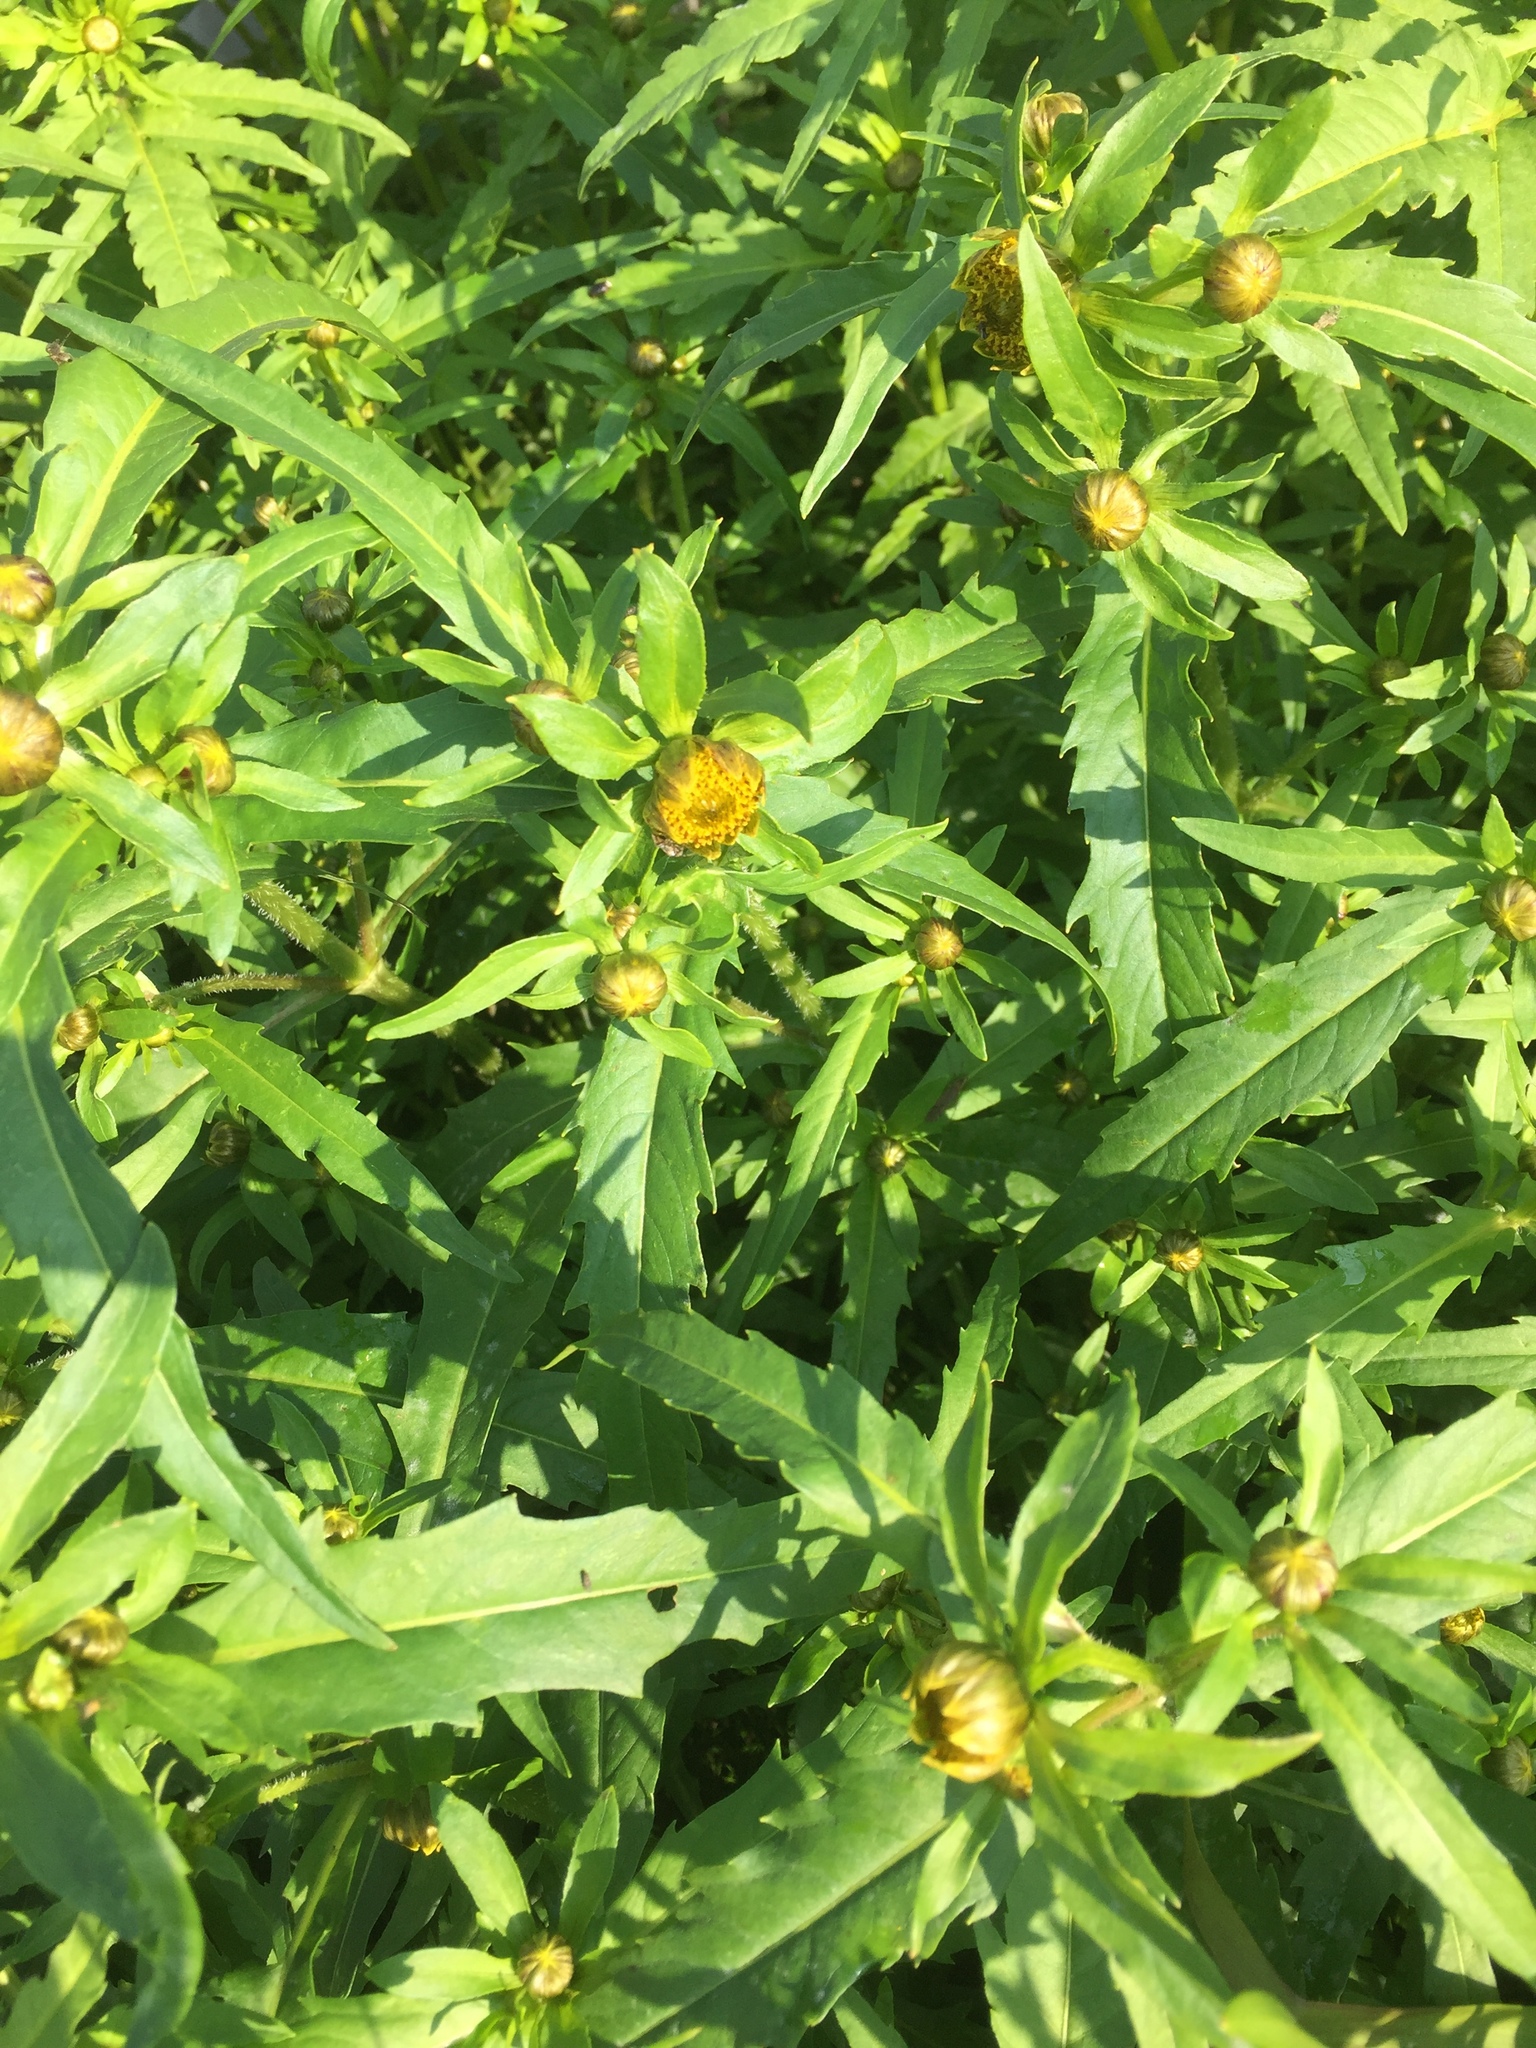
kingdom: Plantae
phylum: Tracheophyta
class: Magnoliopsida
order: Asterales
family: Asteraceae
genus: Bidens
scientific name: Bidens cernua
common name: Nodding bur-marigold
